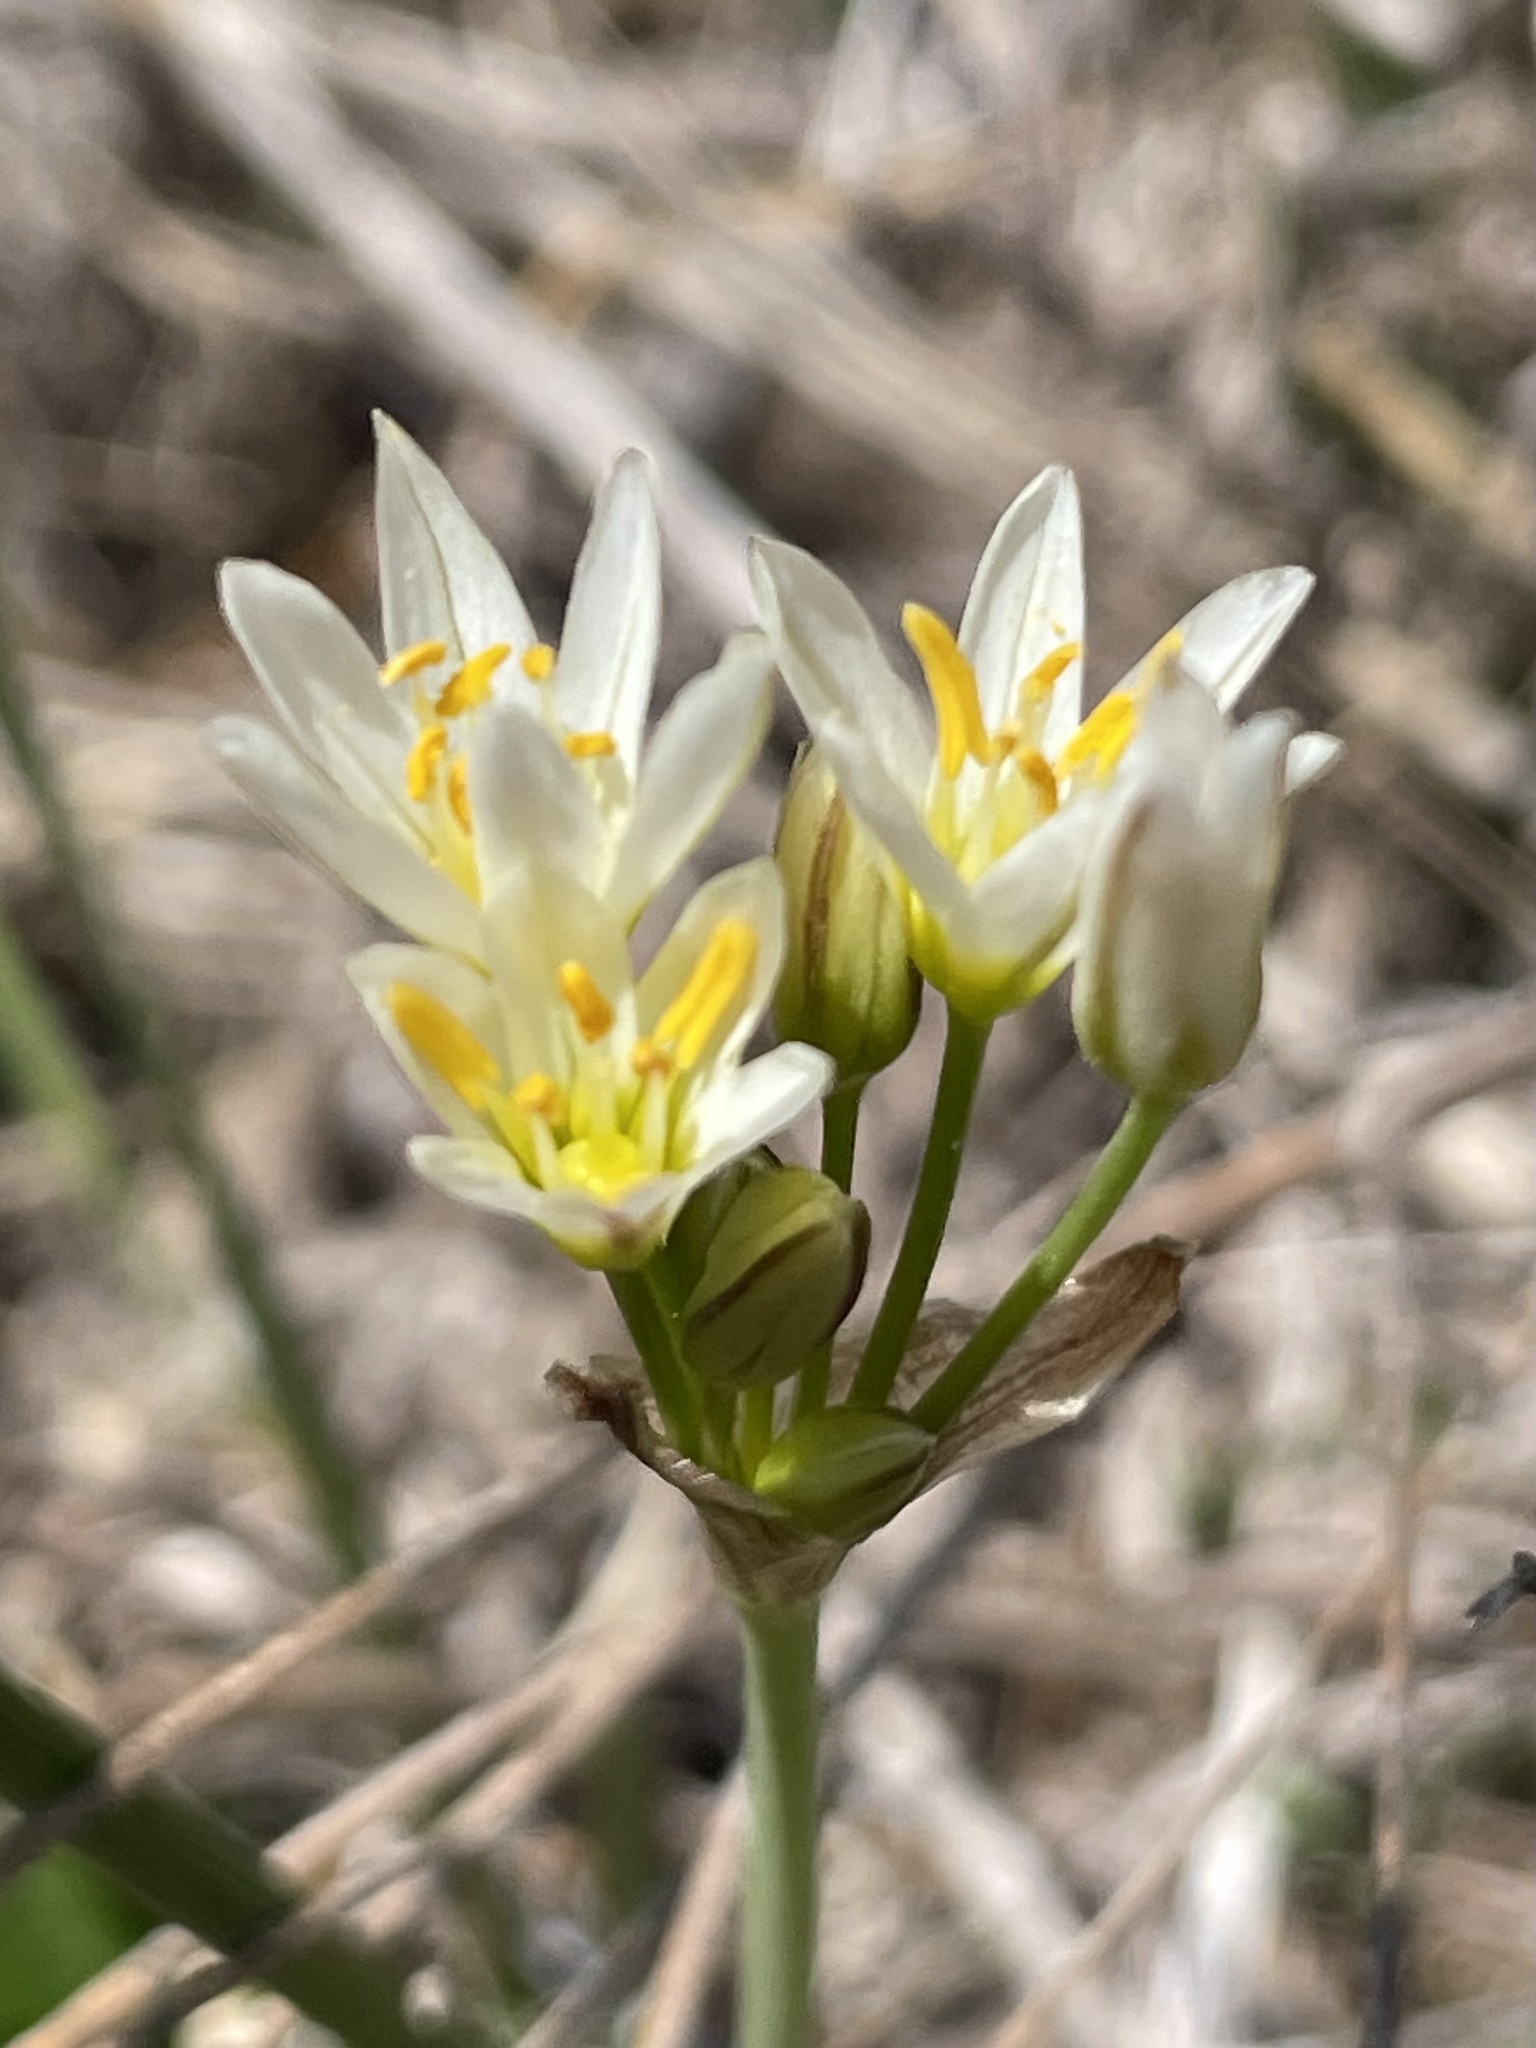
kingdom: Plantae
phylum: Tracheophyta
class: Liliopsida
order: Asparagales
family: Amaryllidaceae
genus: Nothoscordum
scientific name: Nothoscordum bivalve
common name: Crow-poison
